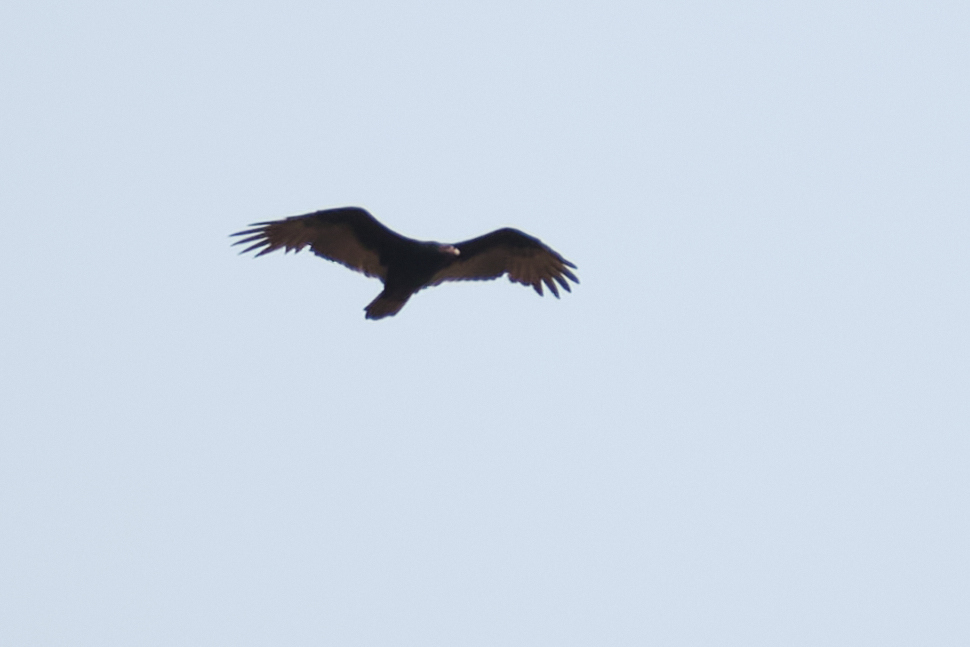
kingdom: Animalia
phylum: Chordata
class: Aves
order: Accipitriformes
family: Cathartidae
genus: Cathartes
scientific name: Cathartes aura
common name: Turkey vulture
